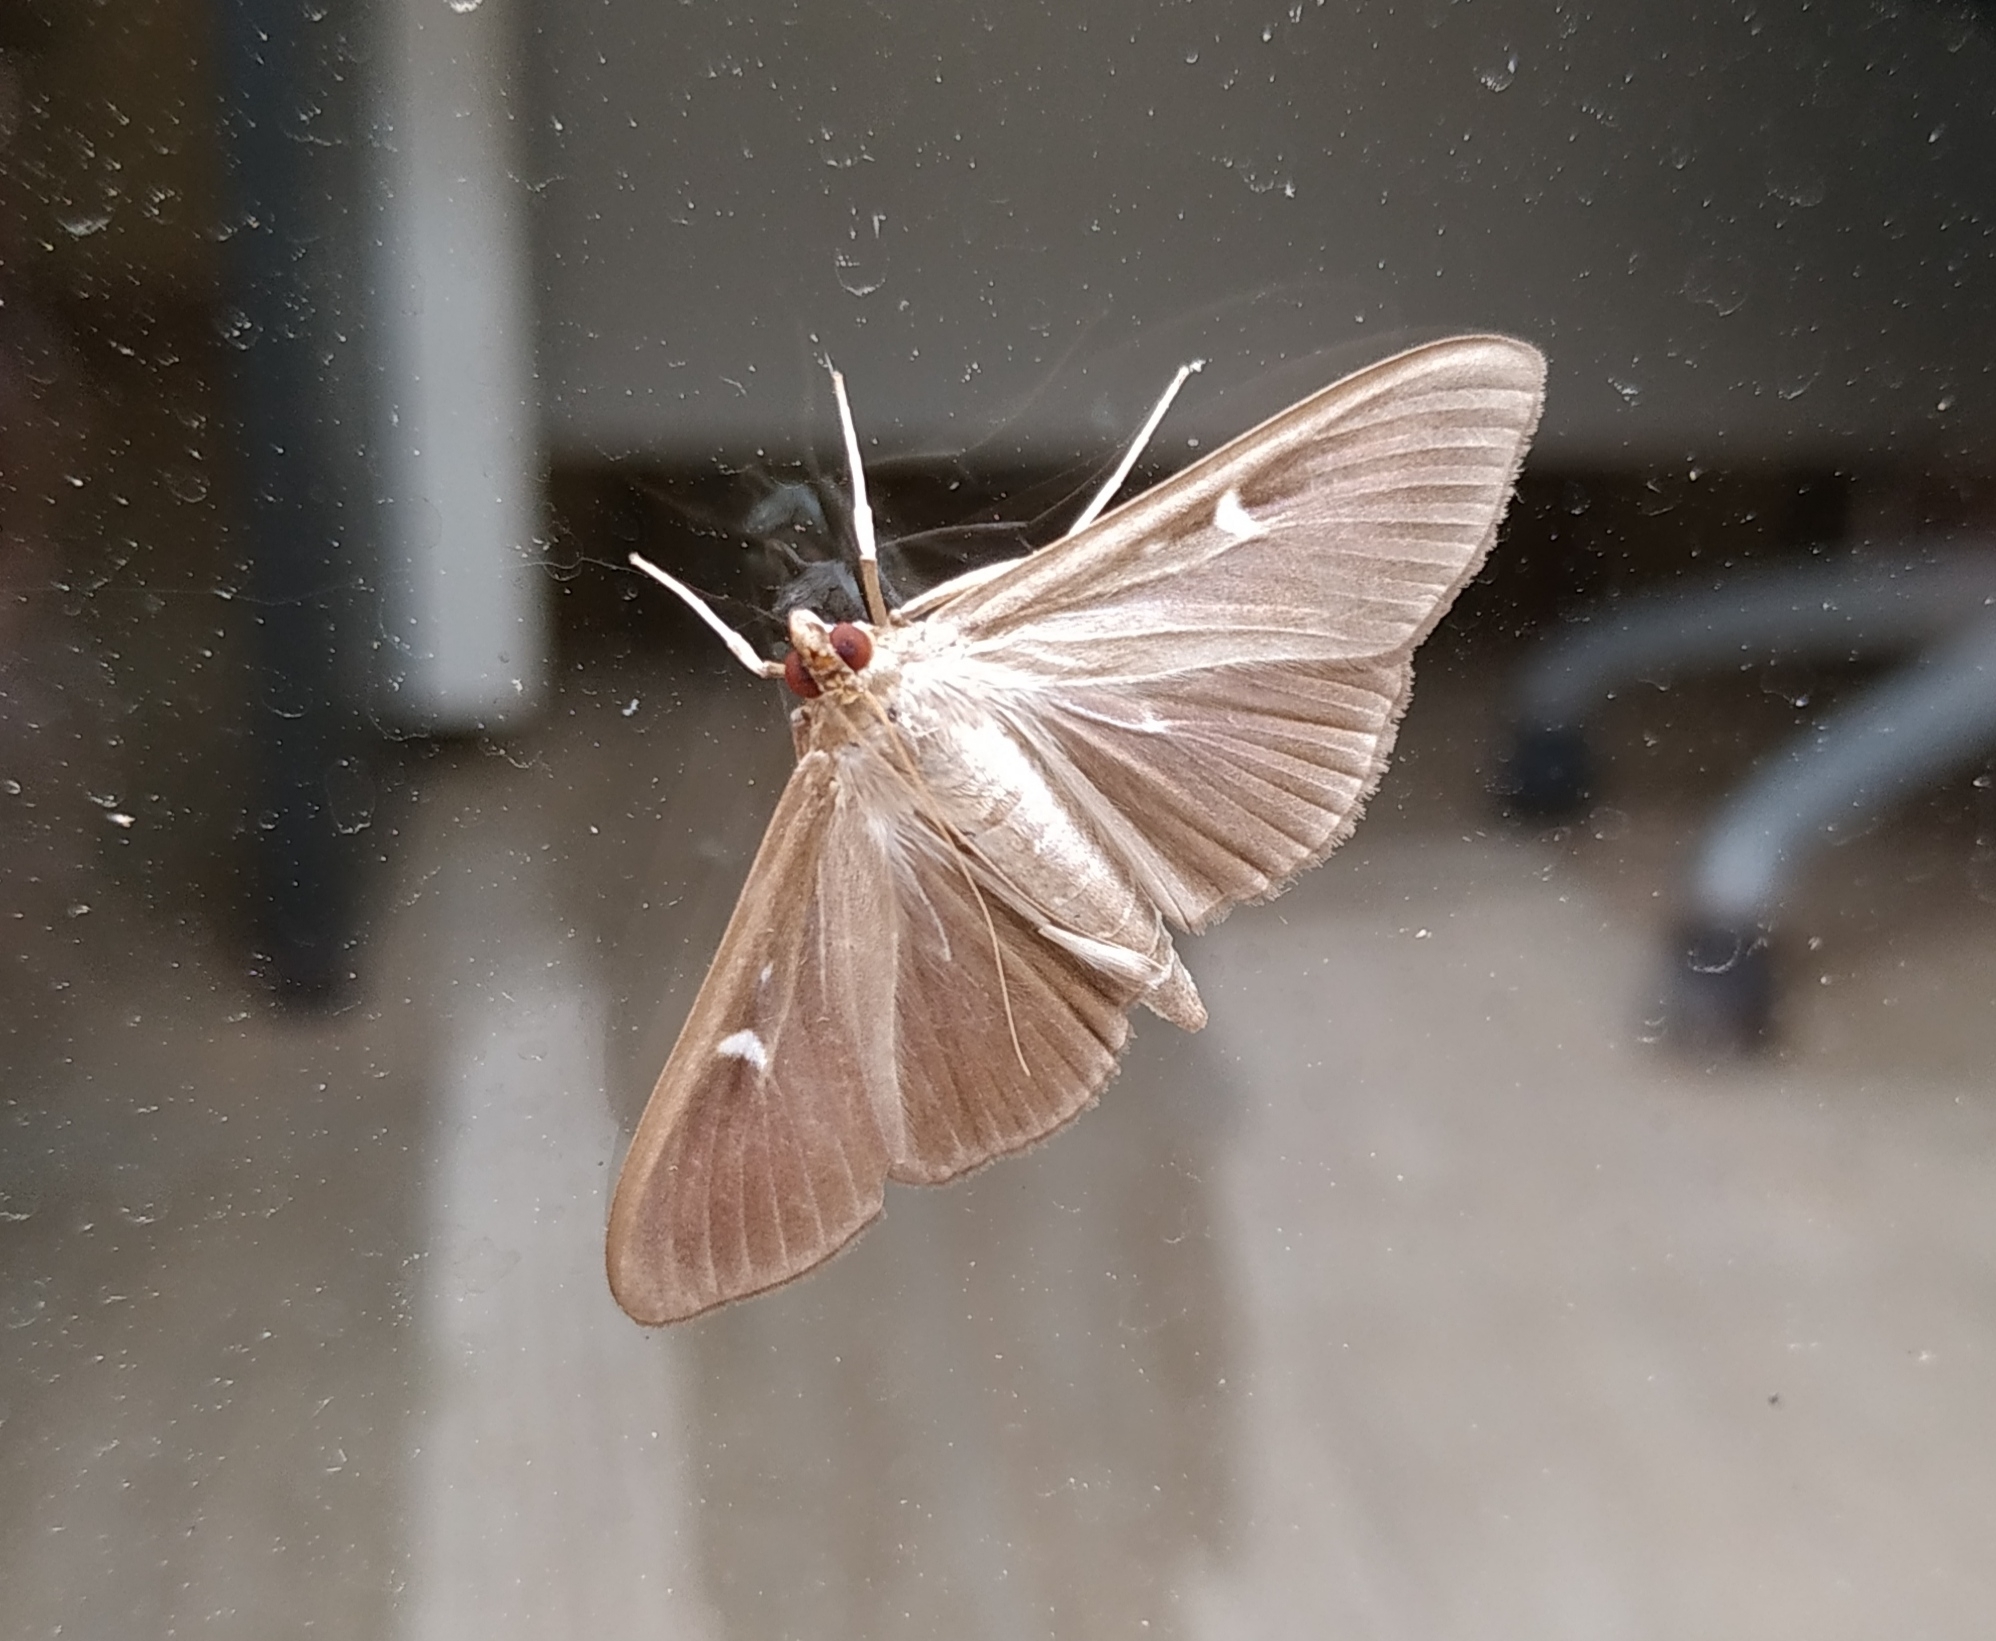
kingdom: Animalia
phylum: Arthropoda
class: Insecta
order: Lepidoptera
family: Crambidae
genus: Cydalima
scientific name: Cydalima perspectalis
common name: Box tree moth
